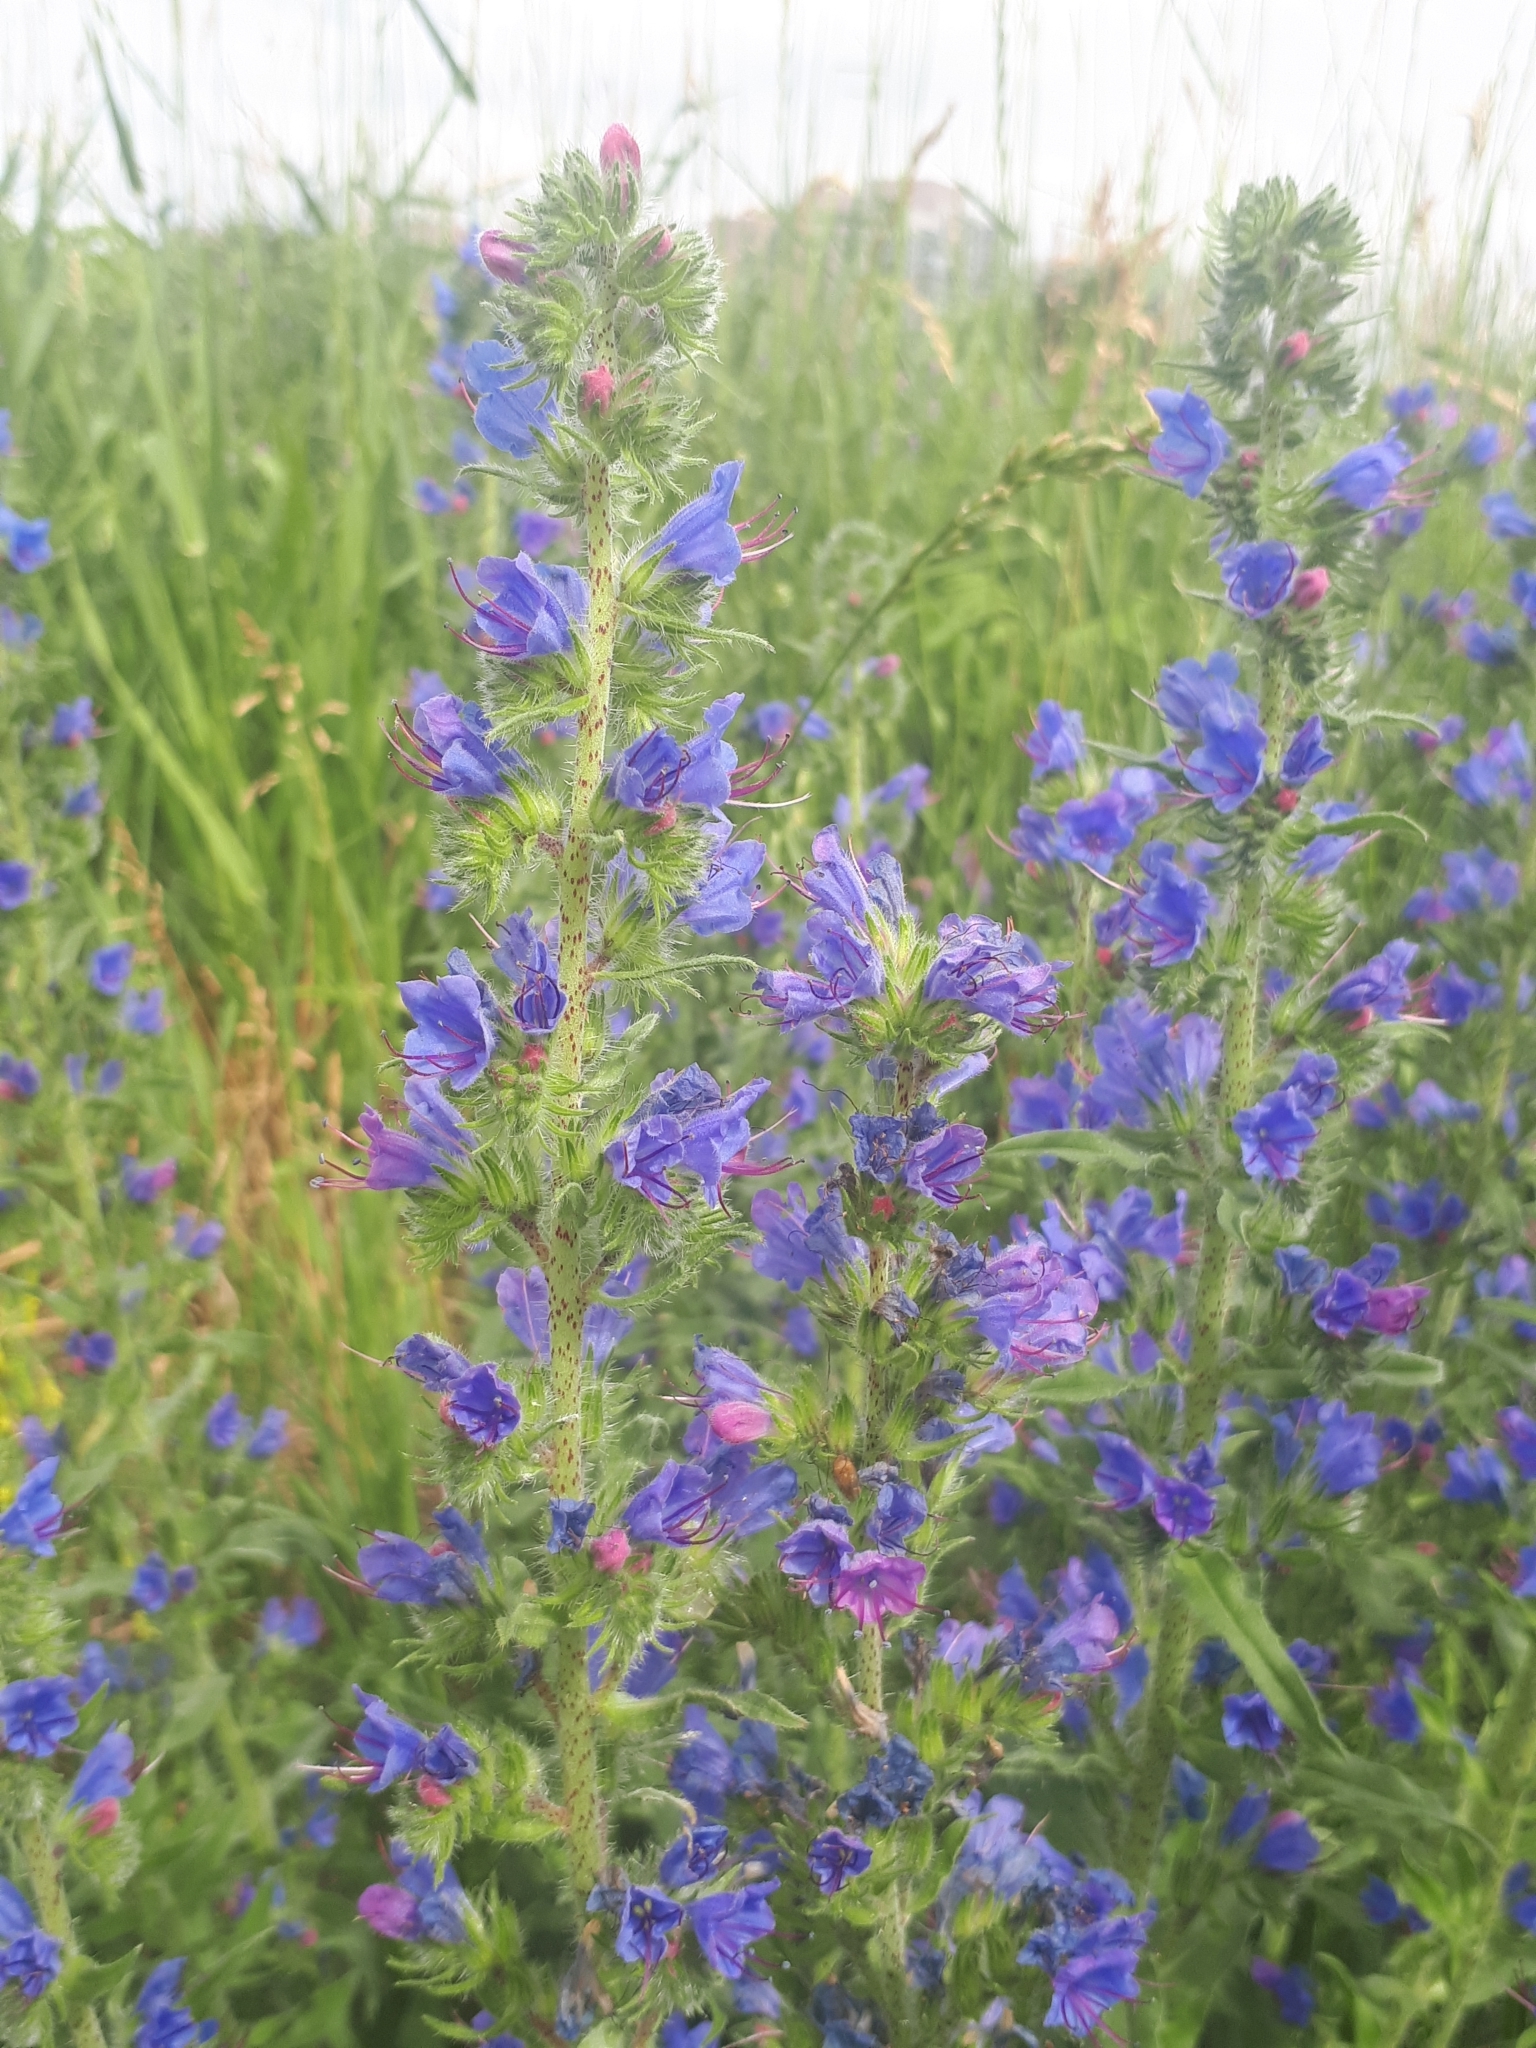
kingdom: Plantae
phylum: Tracheophyta
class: Magnoliopsida
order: Boraginales
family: Boraginaceae
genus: Echium
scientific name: Echium vulgare
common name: Common viper's bugloss
